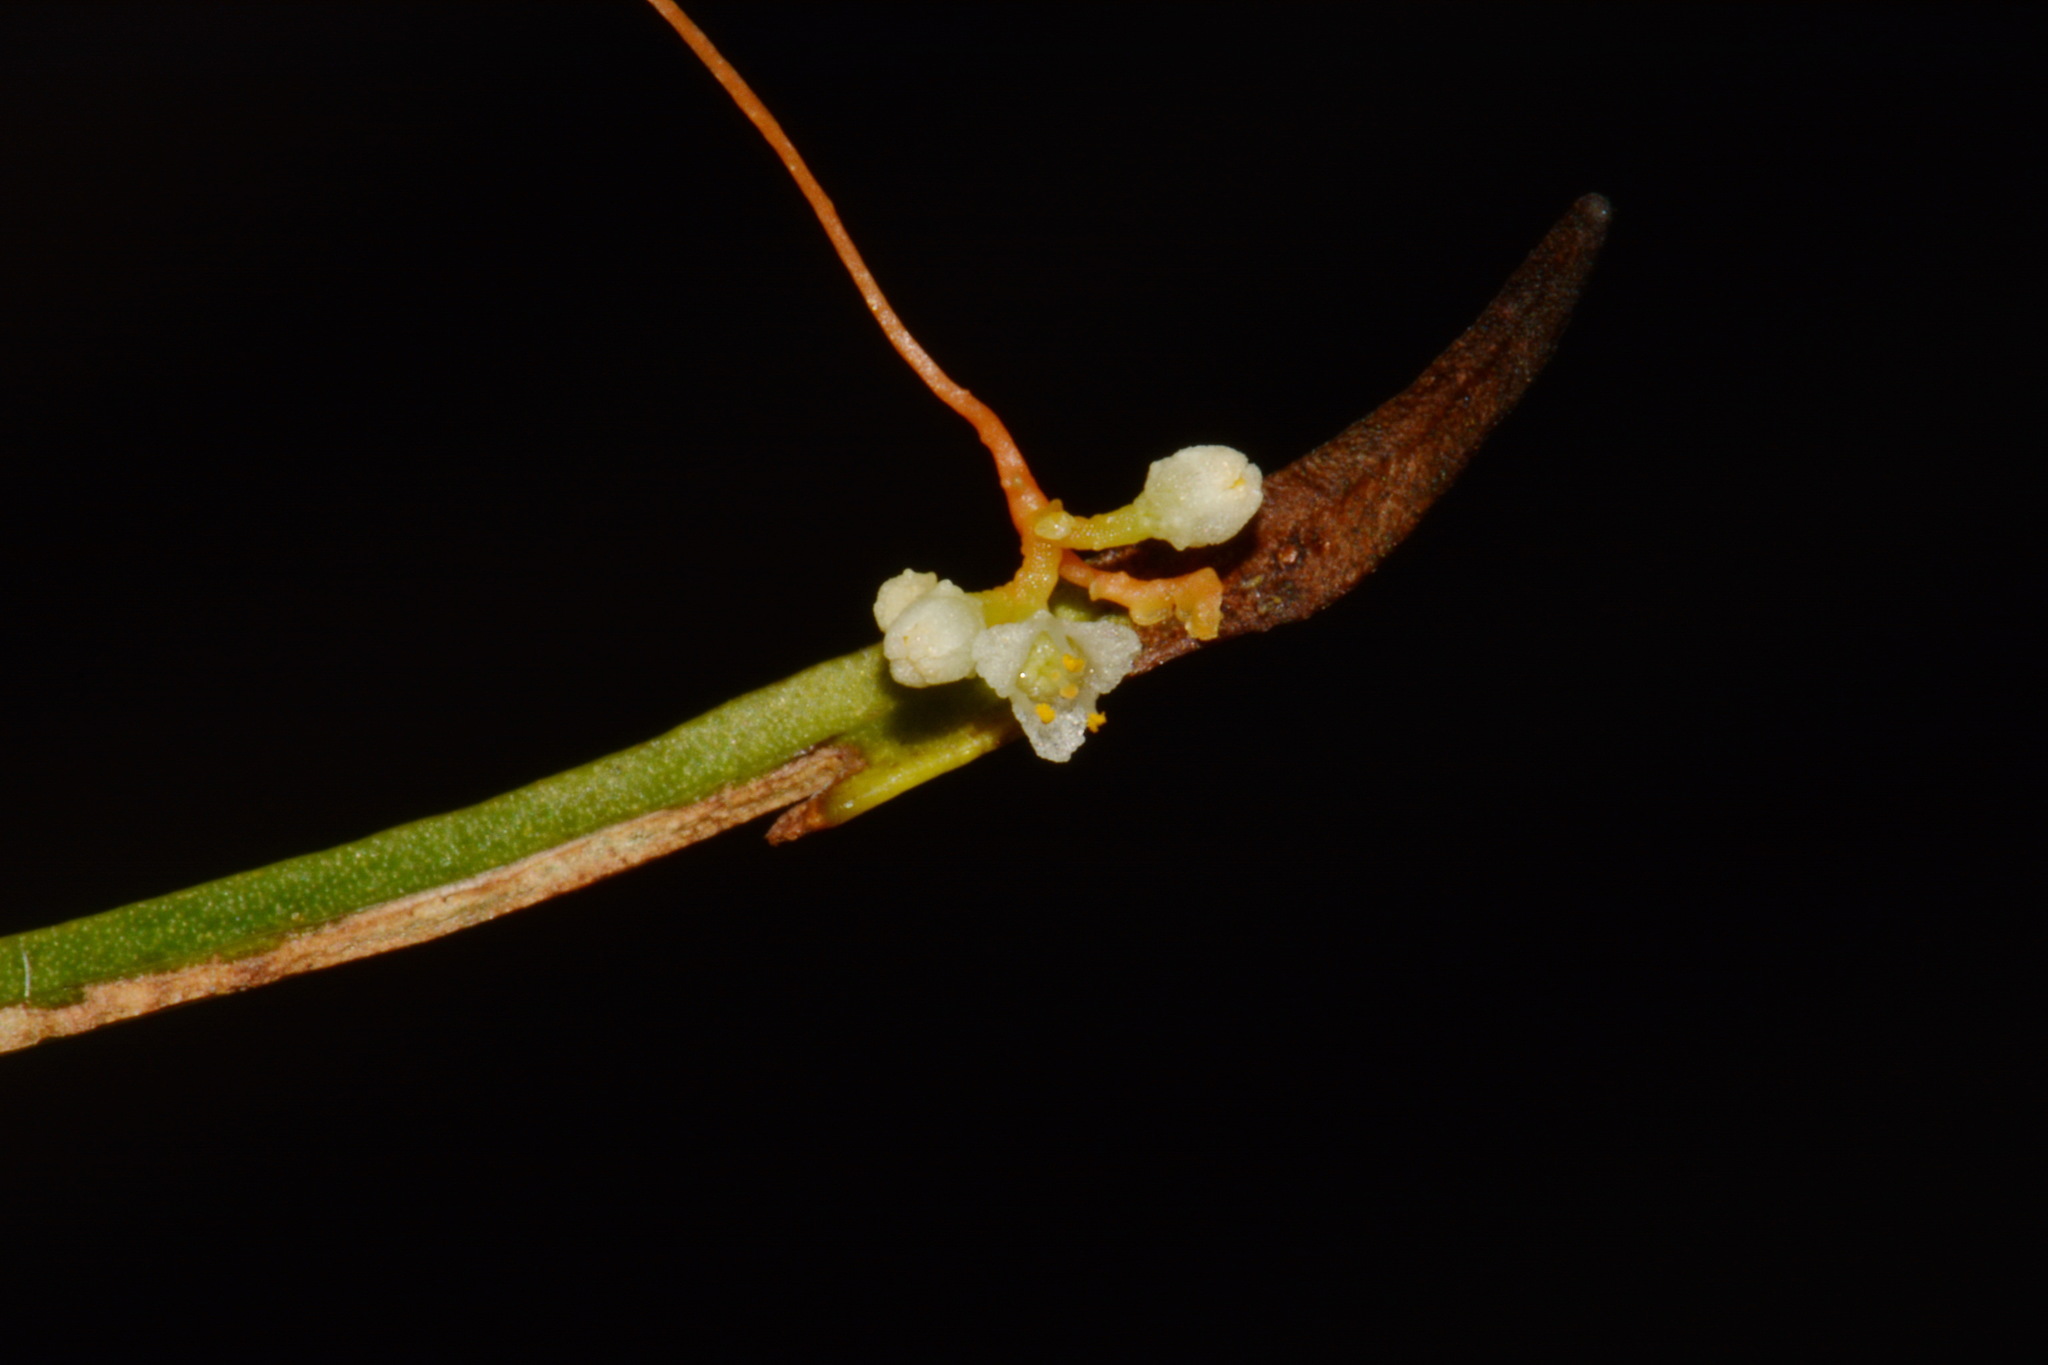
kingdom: Plantae
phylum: Tracheophyta
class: Magnoliopsida
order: Solanales
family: Convolvulaceae
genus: Cuscuta
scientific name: Cuscuta harperi
